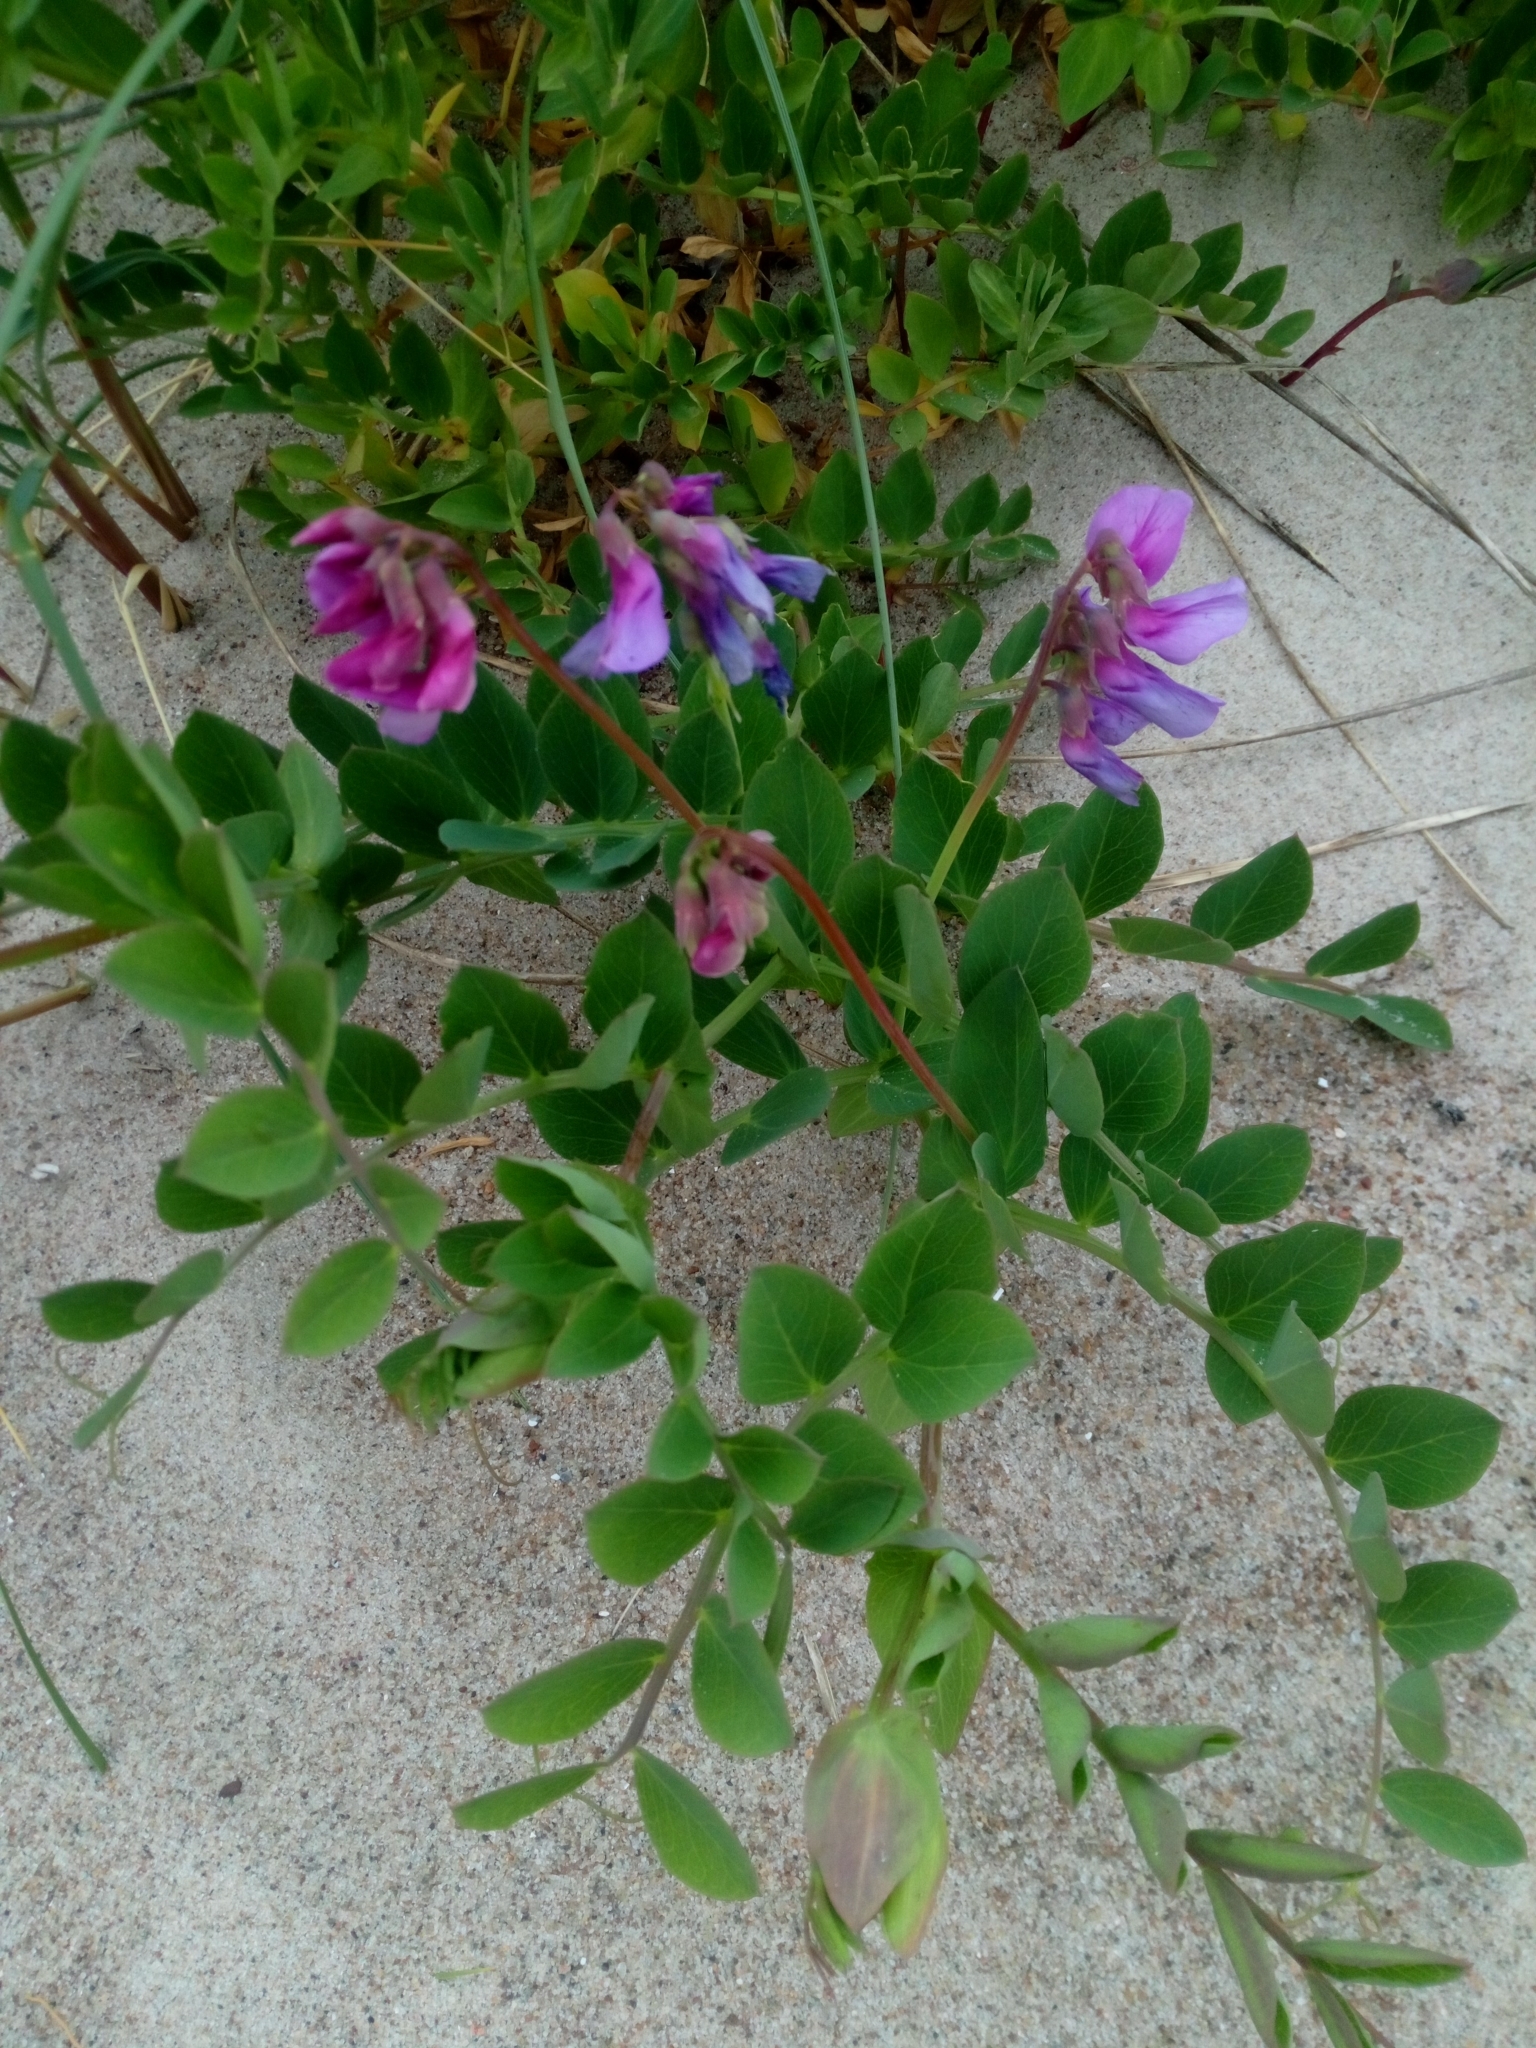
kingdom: Plantae
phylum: Tracheophyta
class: Magnoliopsida
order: Fabales
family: Fabaceae
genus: Lathyrus
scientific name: Lathyrus japonicus
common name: Sea pea
